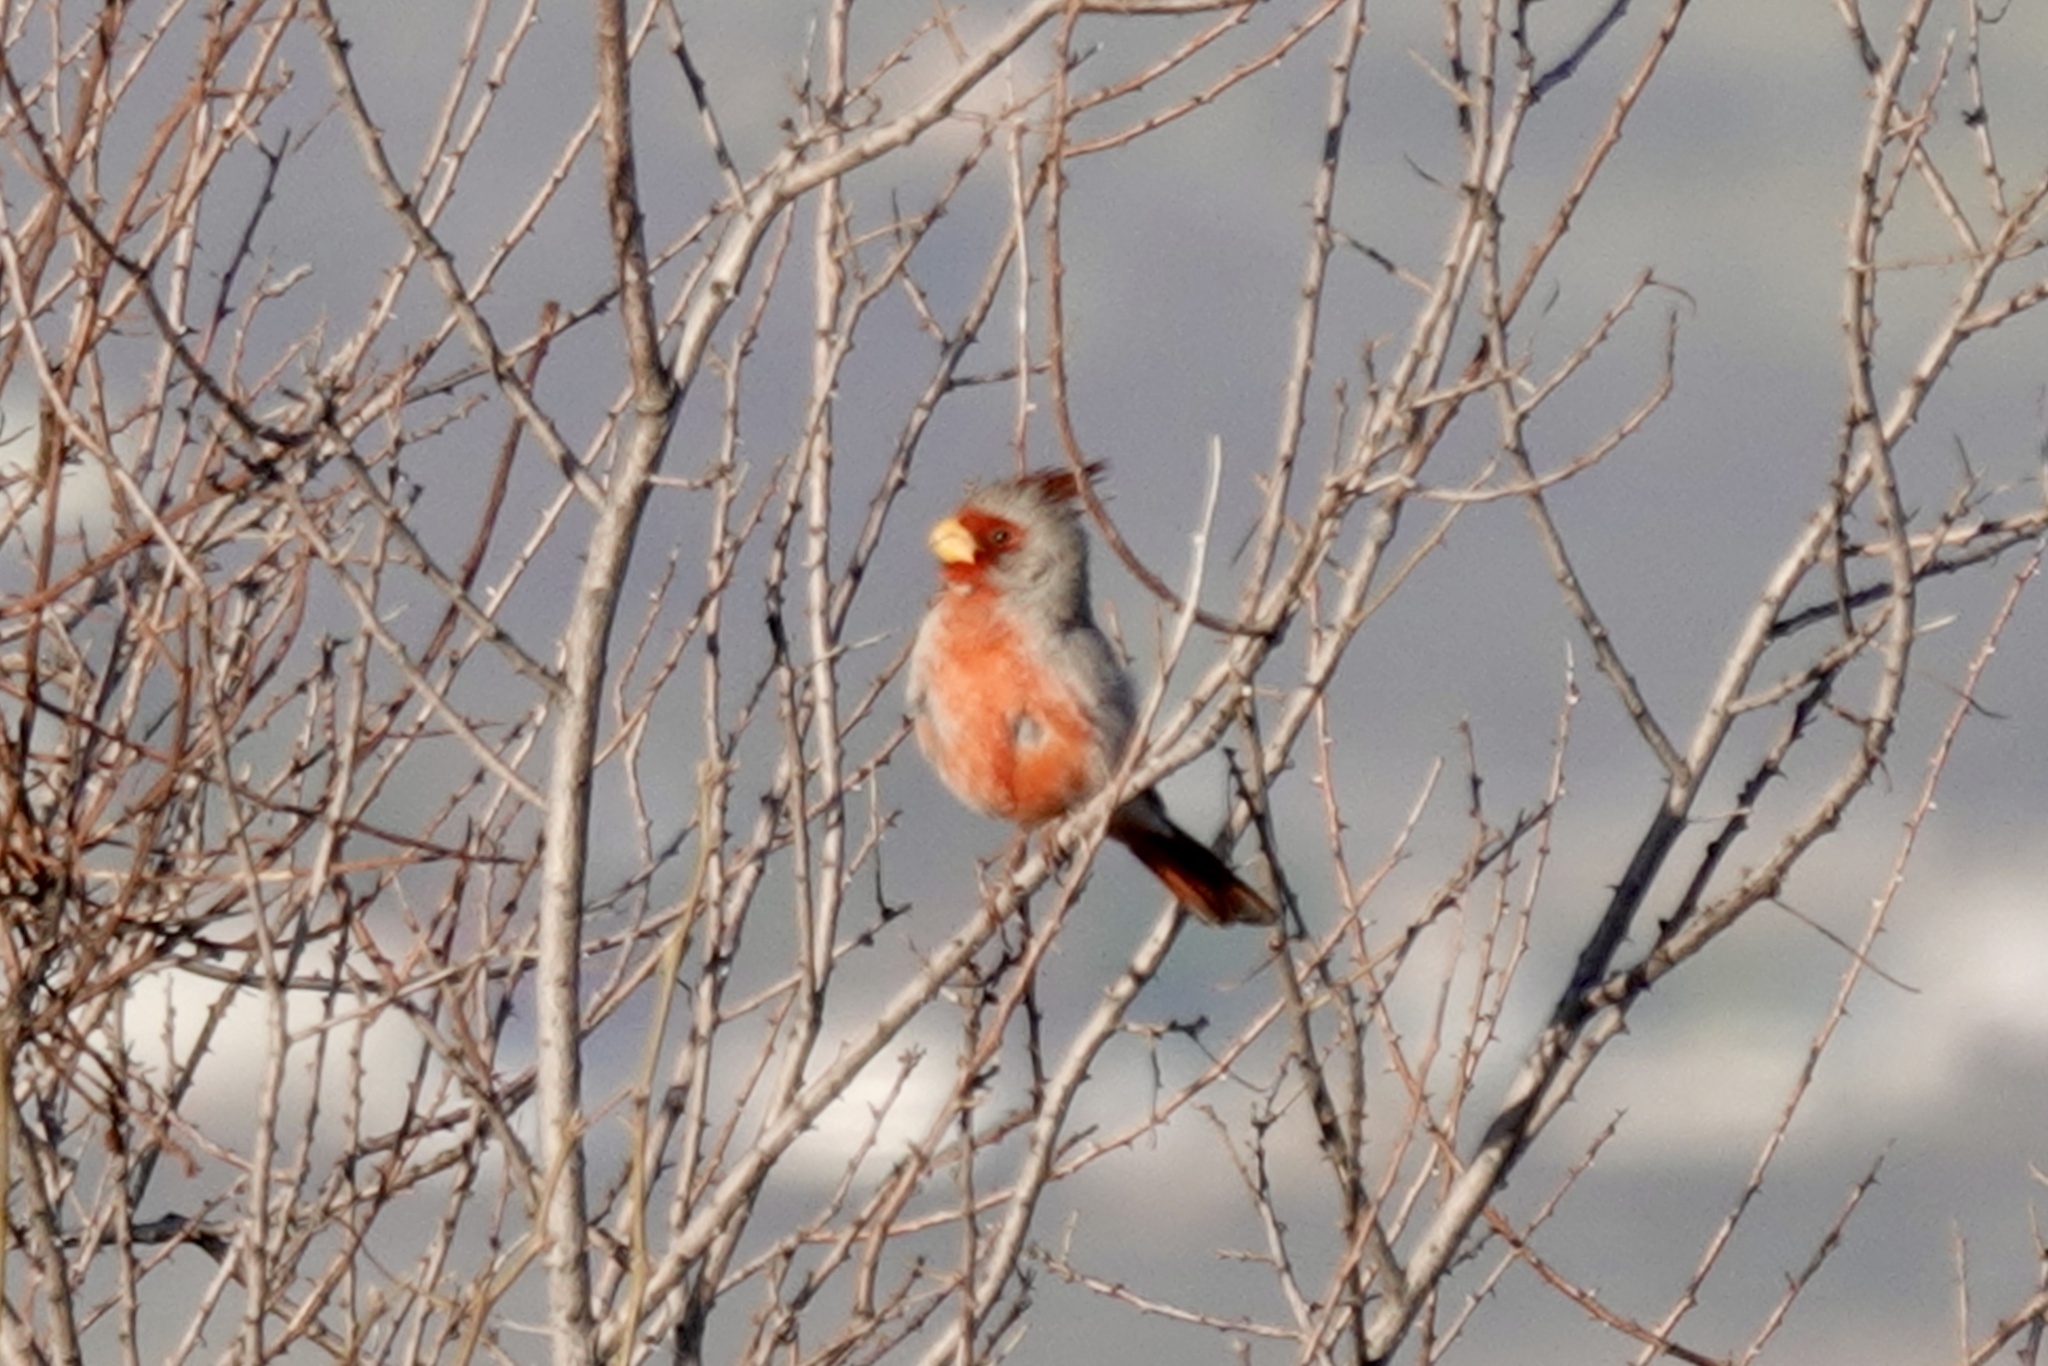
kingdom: Animalia
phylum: Chordata
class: Aves
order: Passeriformes
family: Cardinalidae
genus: Cardinalis
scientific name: Cardinalis sinuatus
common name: Pyrrhuloxia
